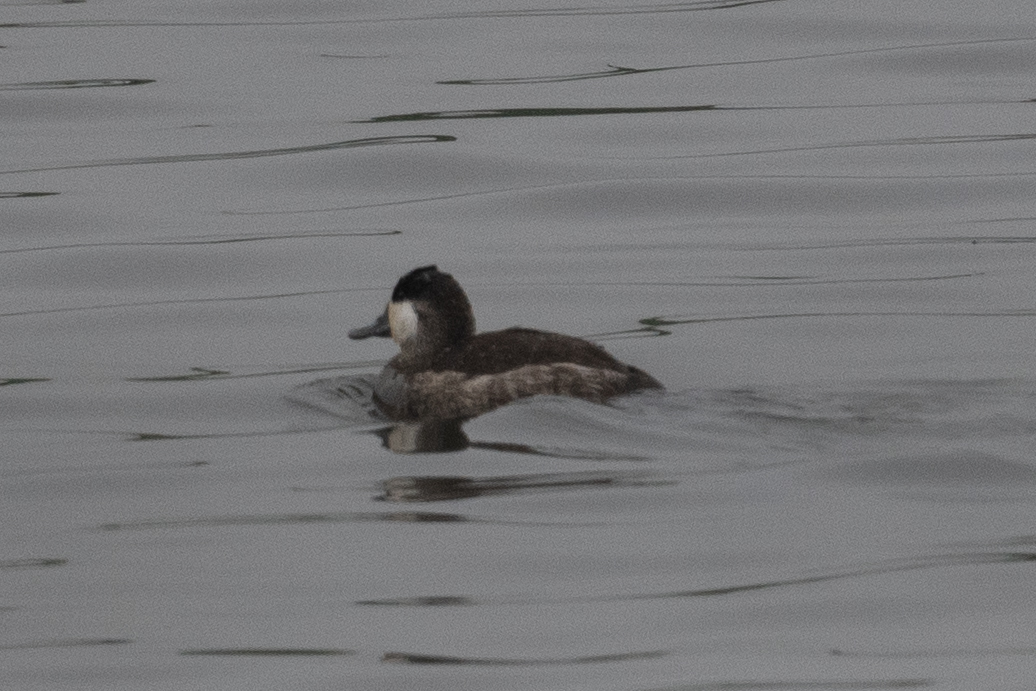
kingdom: Animalia
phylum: Chordata
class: Aves
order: Anseriformes
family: Anatidae
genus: Oxyura
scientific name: Oxyura jamaicensis
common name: Ruddy duck
